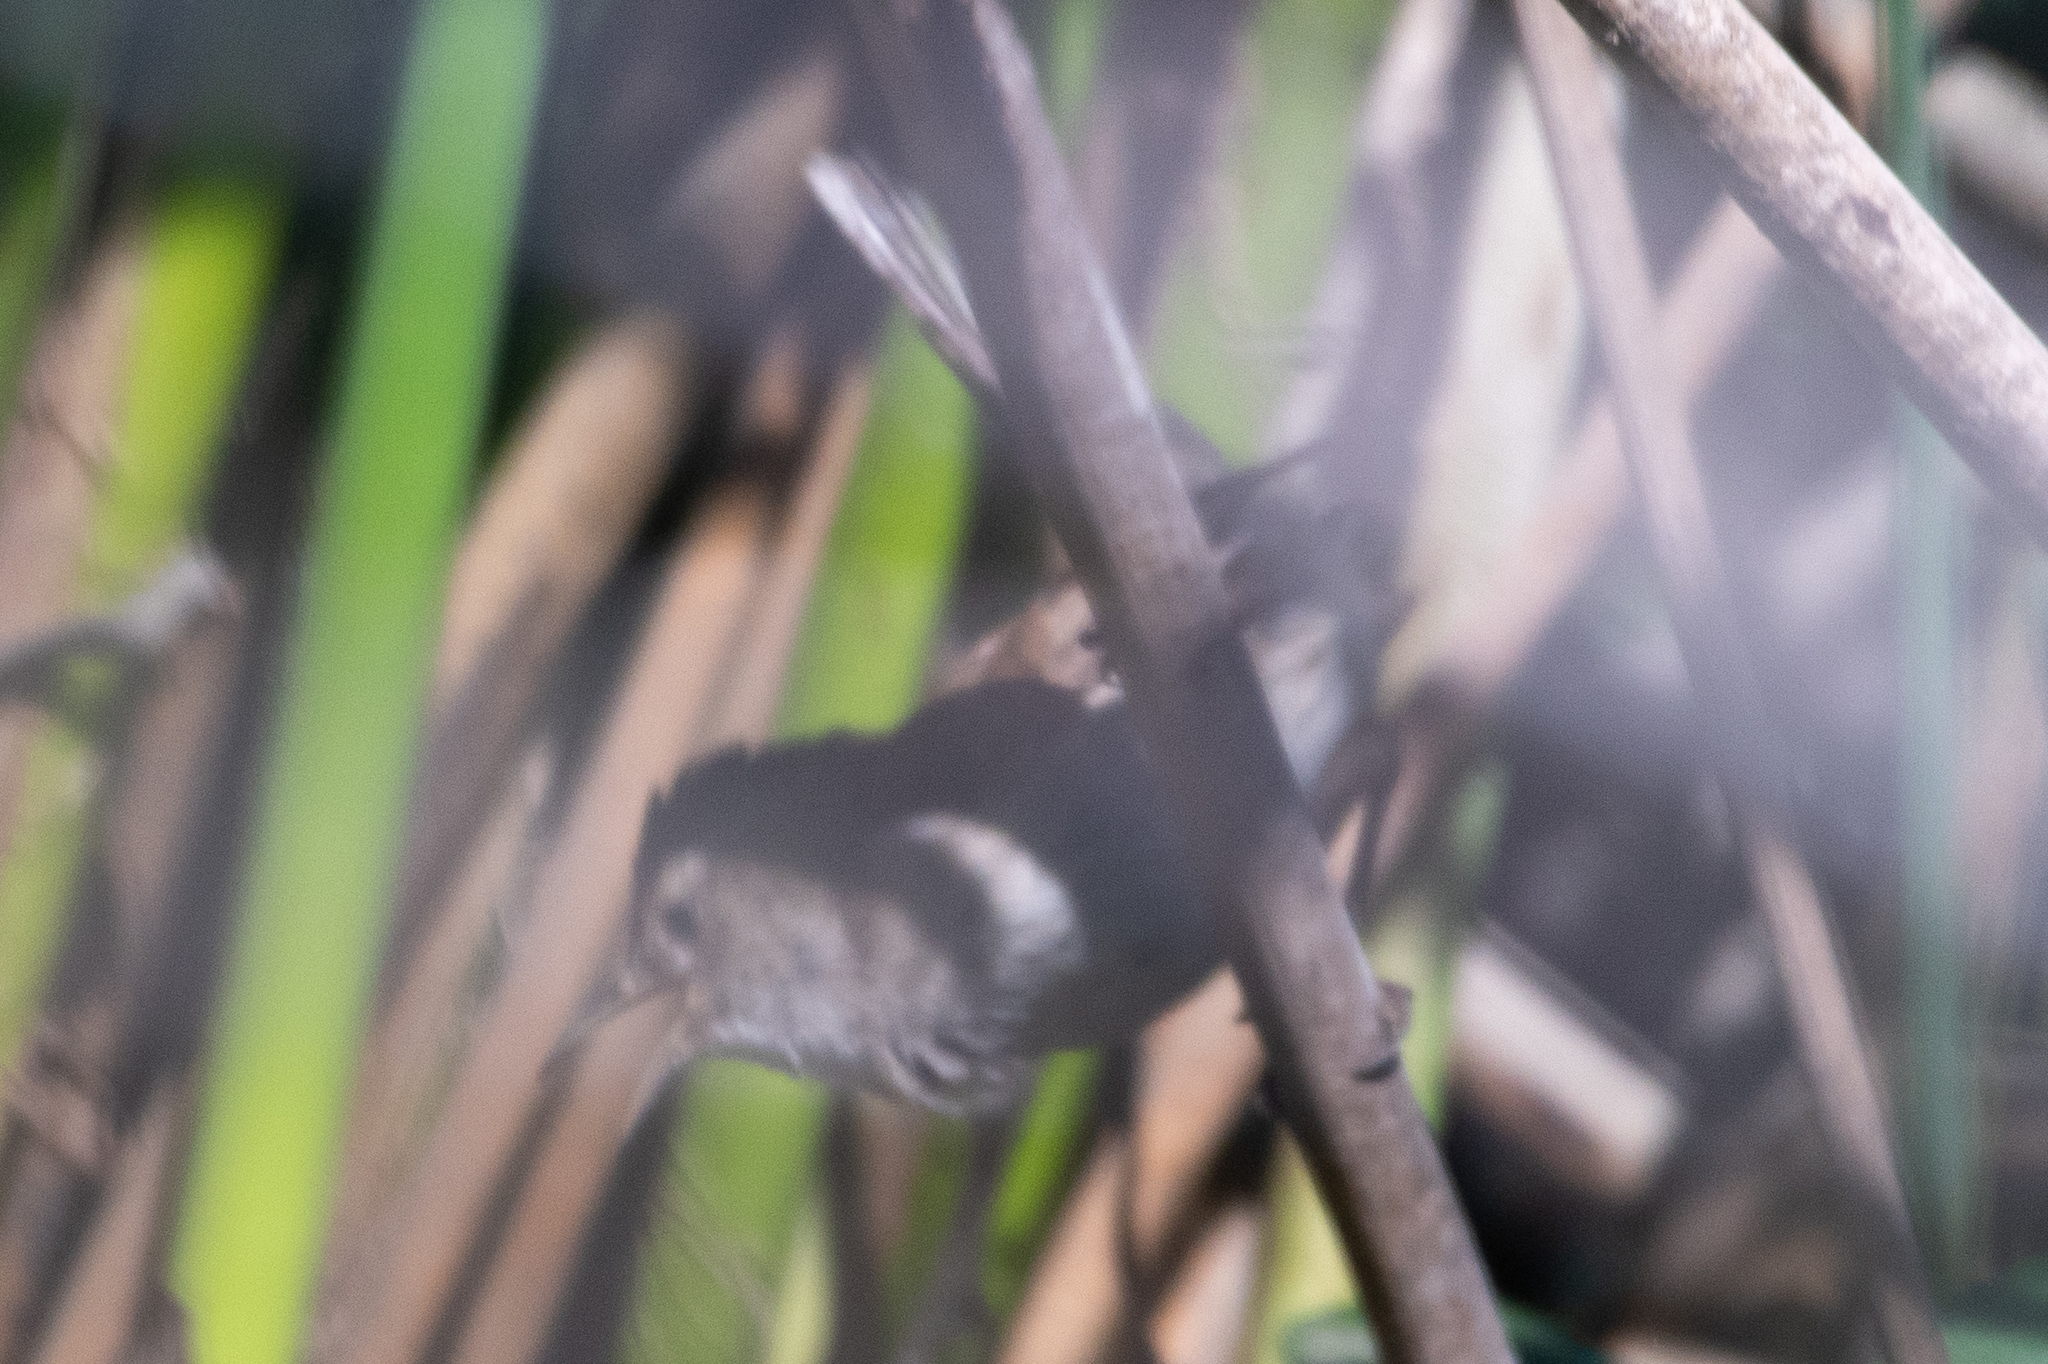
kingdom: Animalia
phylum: Chordata
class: Aves
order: Passeriformes
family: Troglodytidae
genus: Cistothorus
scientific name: Cistothorus palustris
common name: Marsh wren
